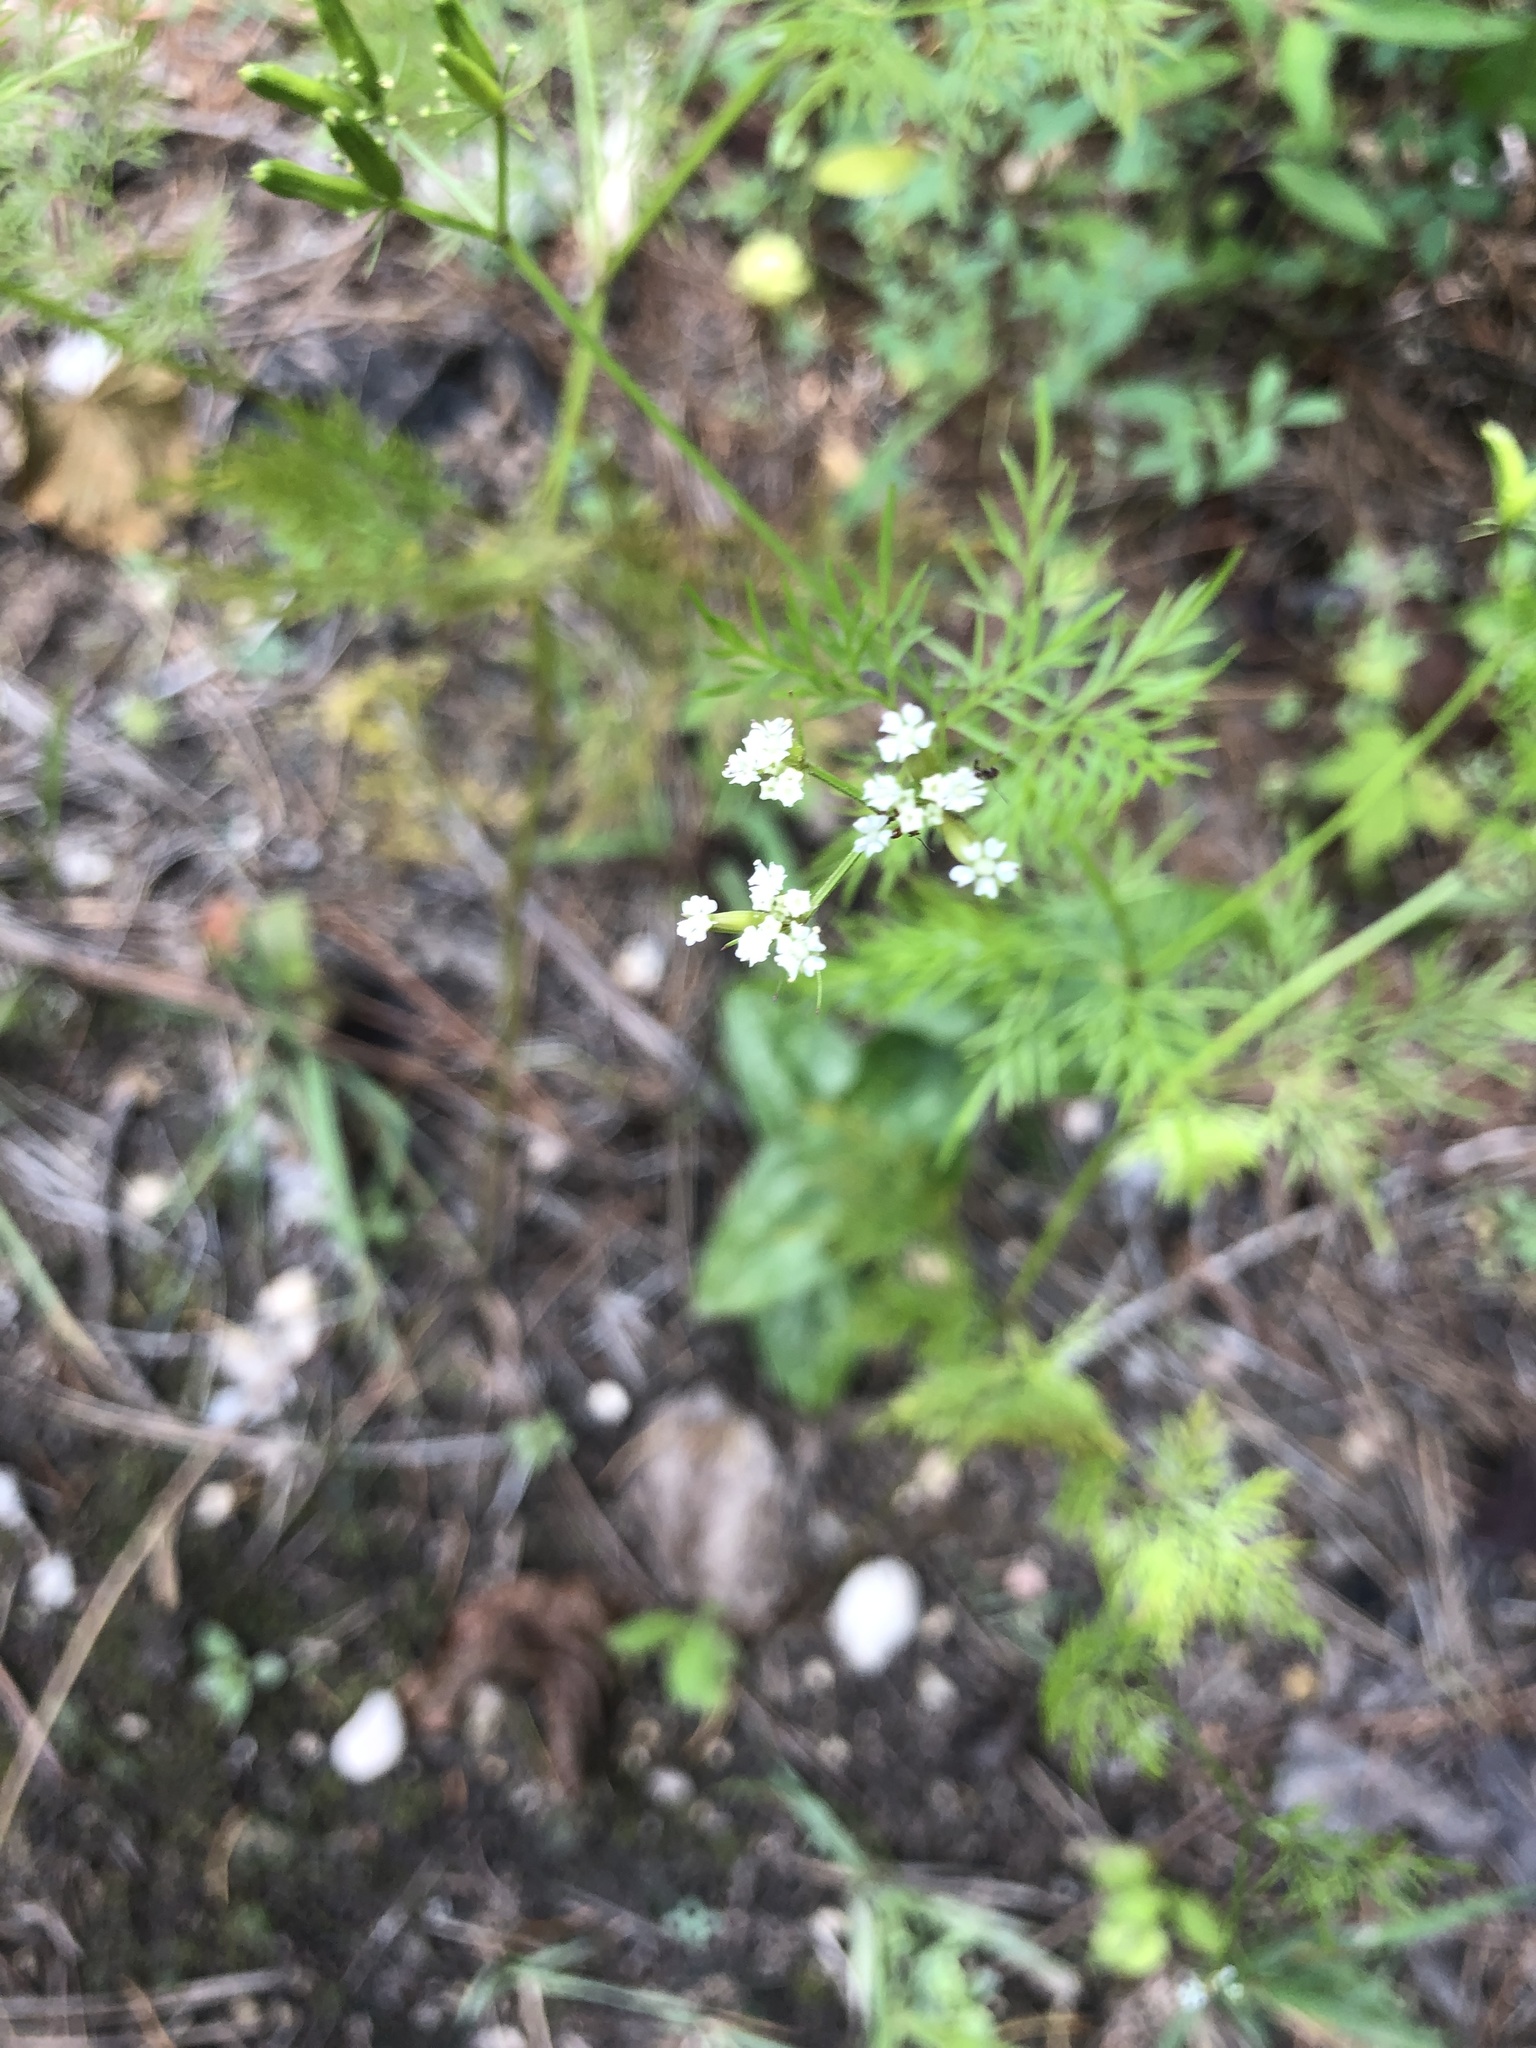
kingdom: Plantae
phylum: Tracheophyta
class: Magnoliopsida
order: Apiales
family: Apiaceae
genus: Trepocarpus
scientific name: Trepocarpus aethusae
